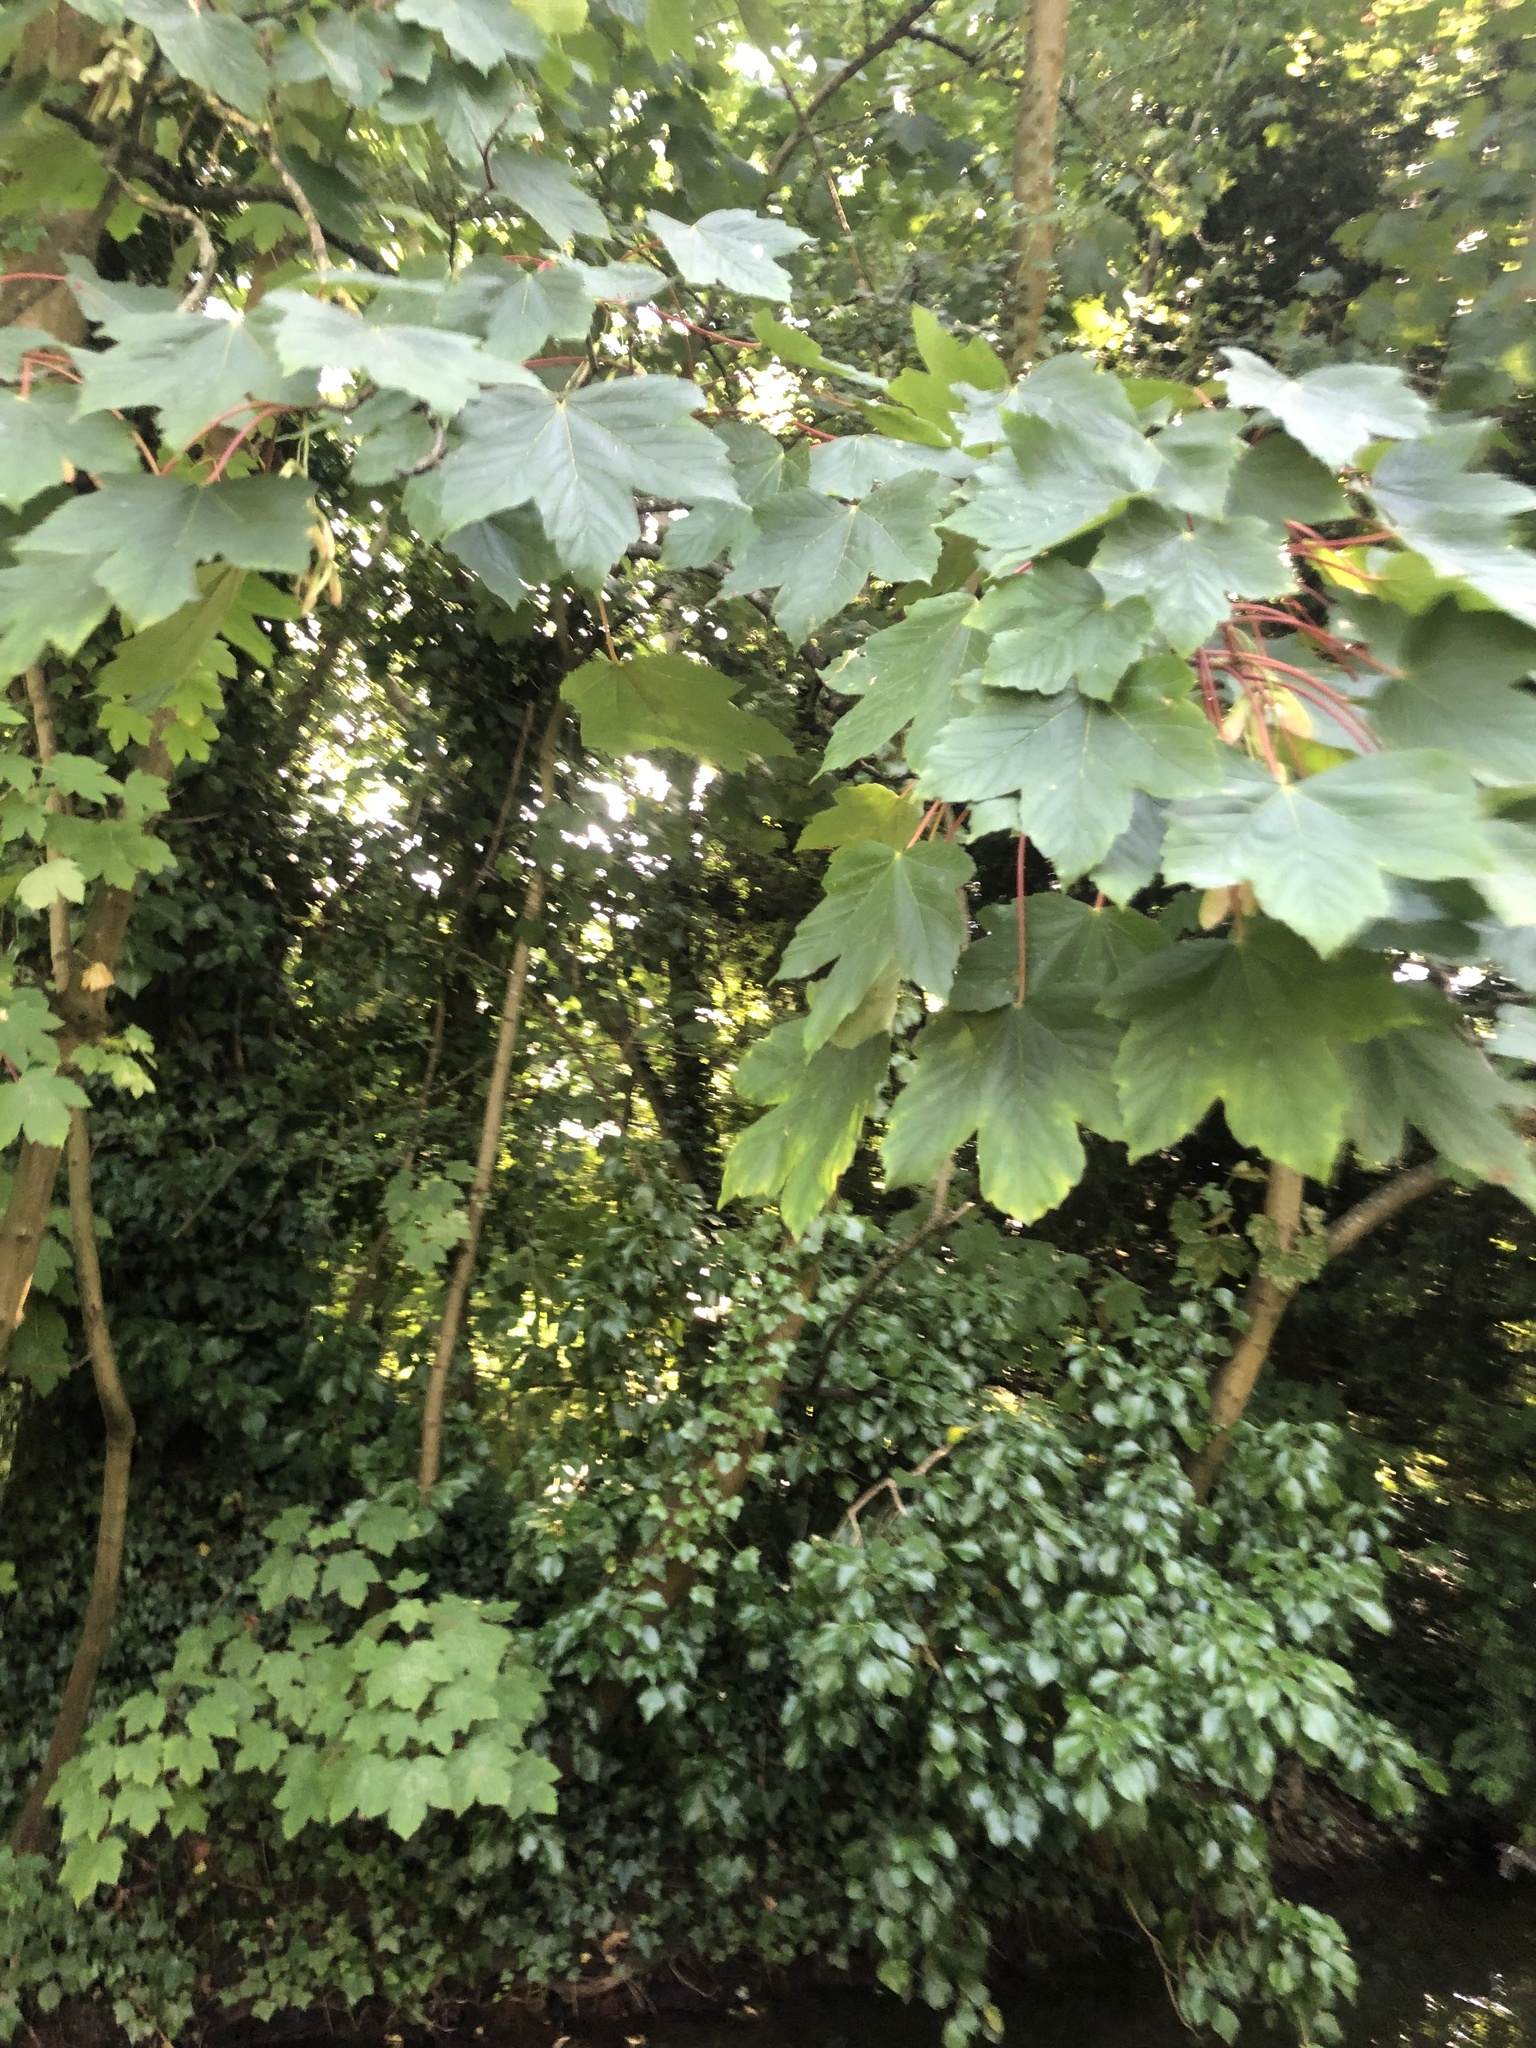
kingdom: Plantae
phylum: Tracheophyta
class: Magnoliopsida
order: Sapindales
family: Sapindaceae
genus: Acer
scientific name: Acer pseudoplatanus
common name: Sycamore
